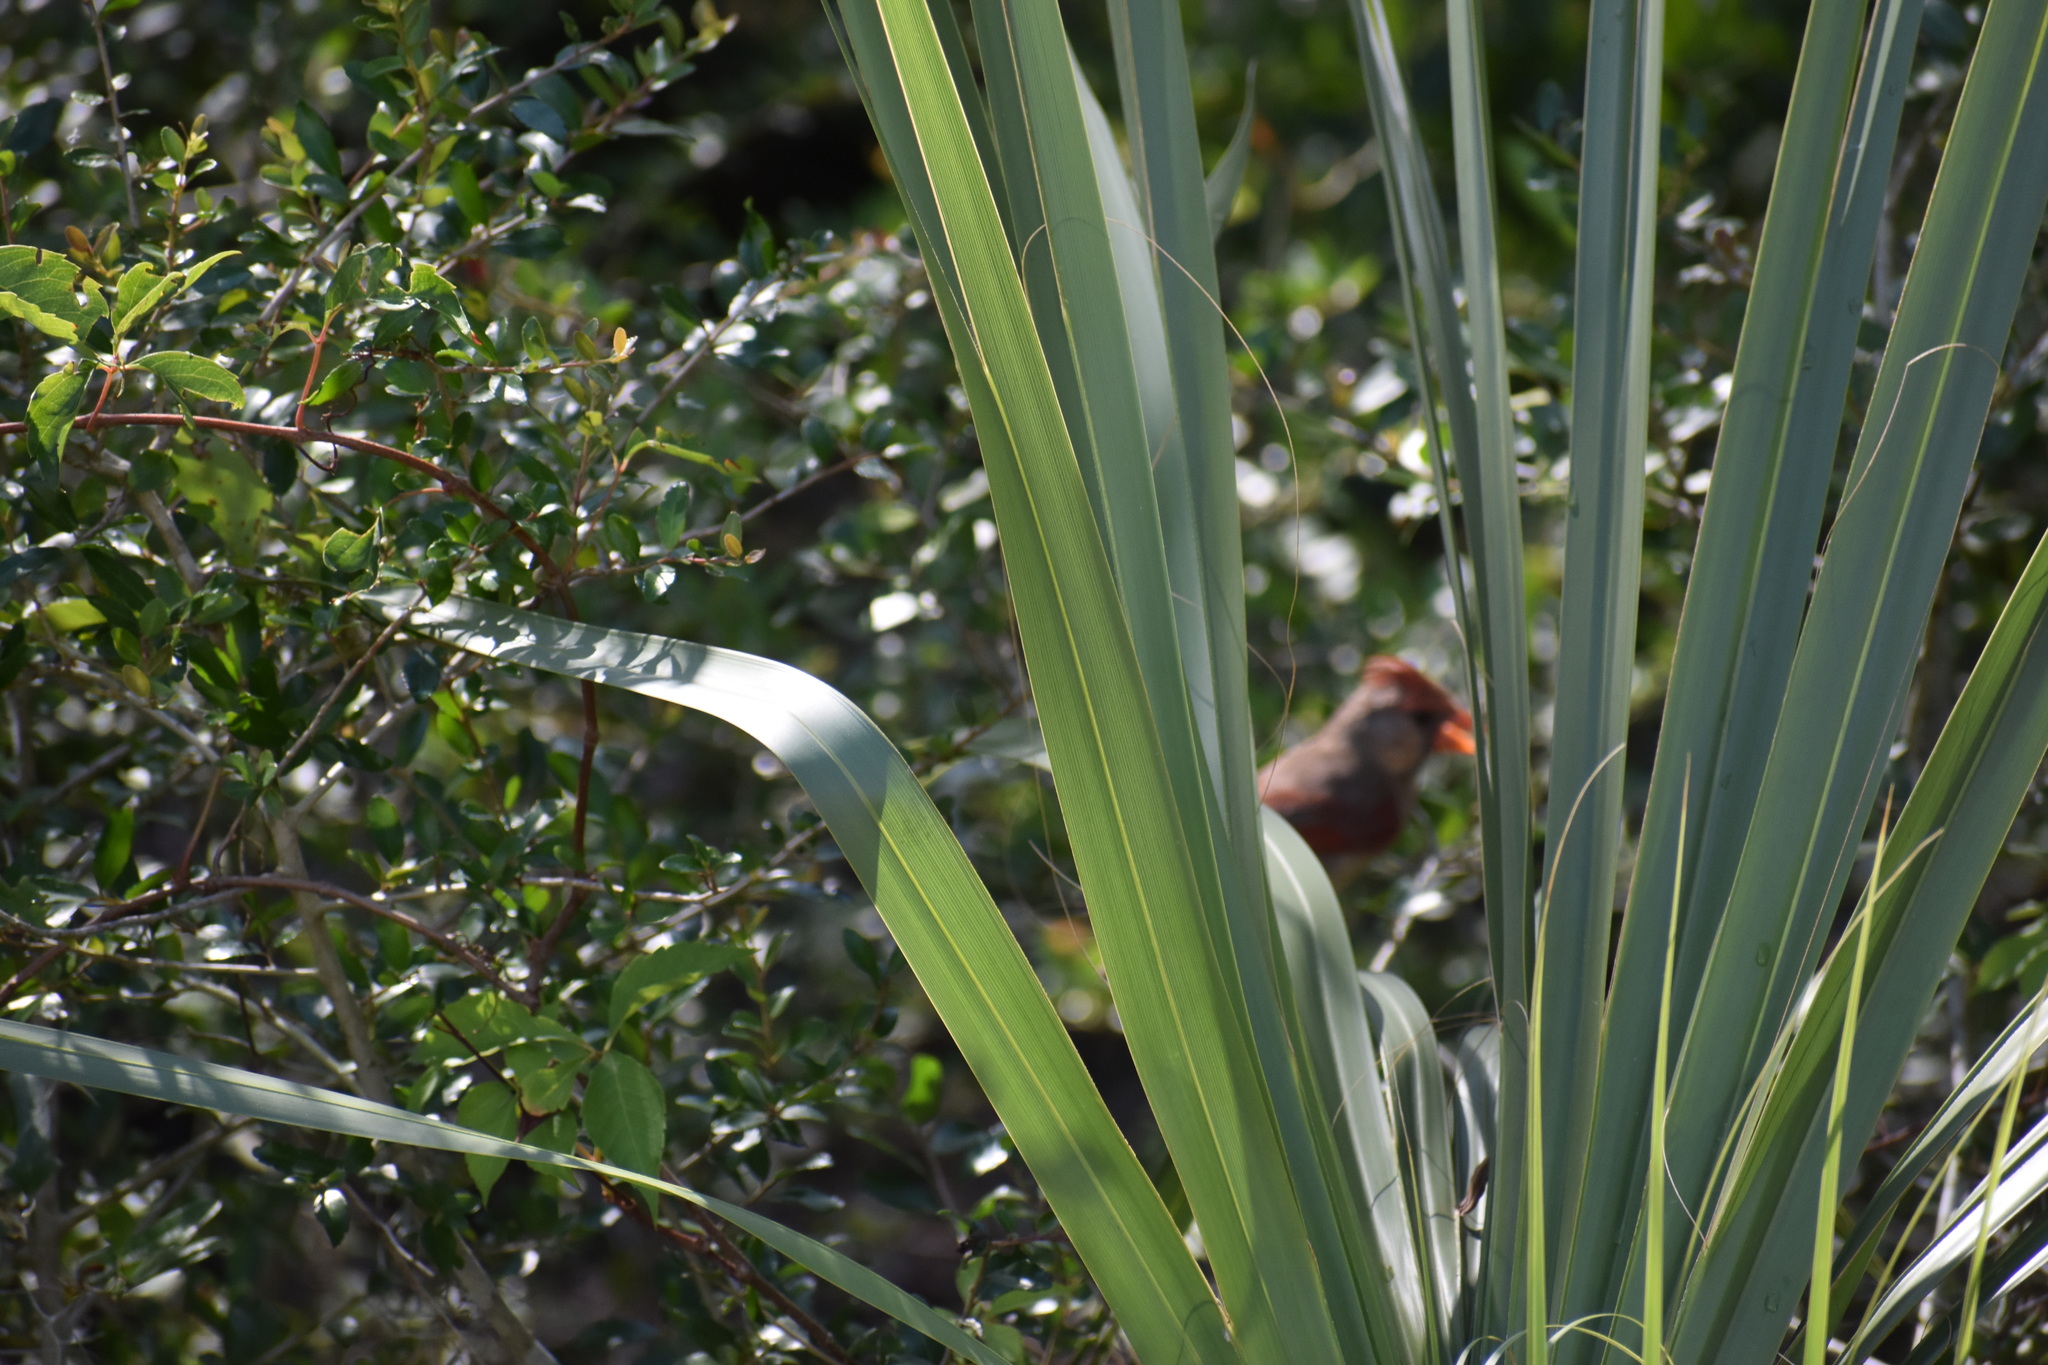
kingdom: Animalia
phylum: Chordata
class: Aves
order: Passeriformes
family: Cardinalidae
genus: Cardinalis
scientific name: Cardinalis cardinalis
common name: Northern cardinal
